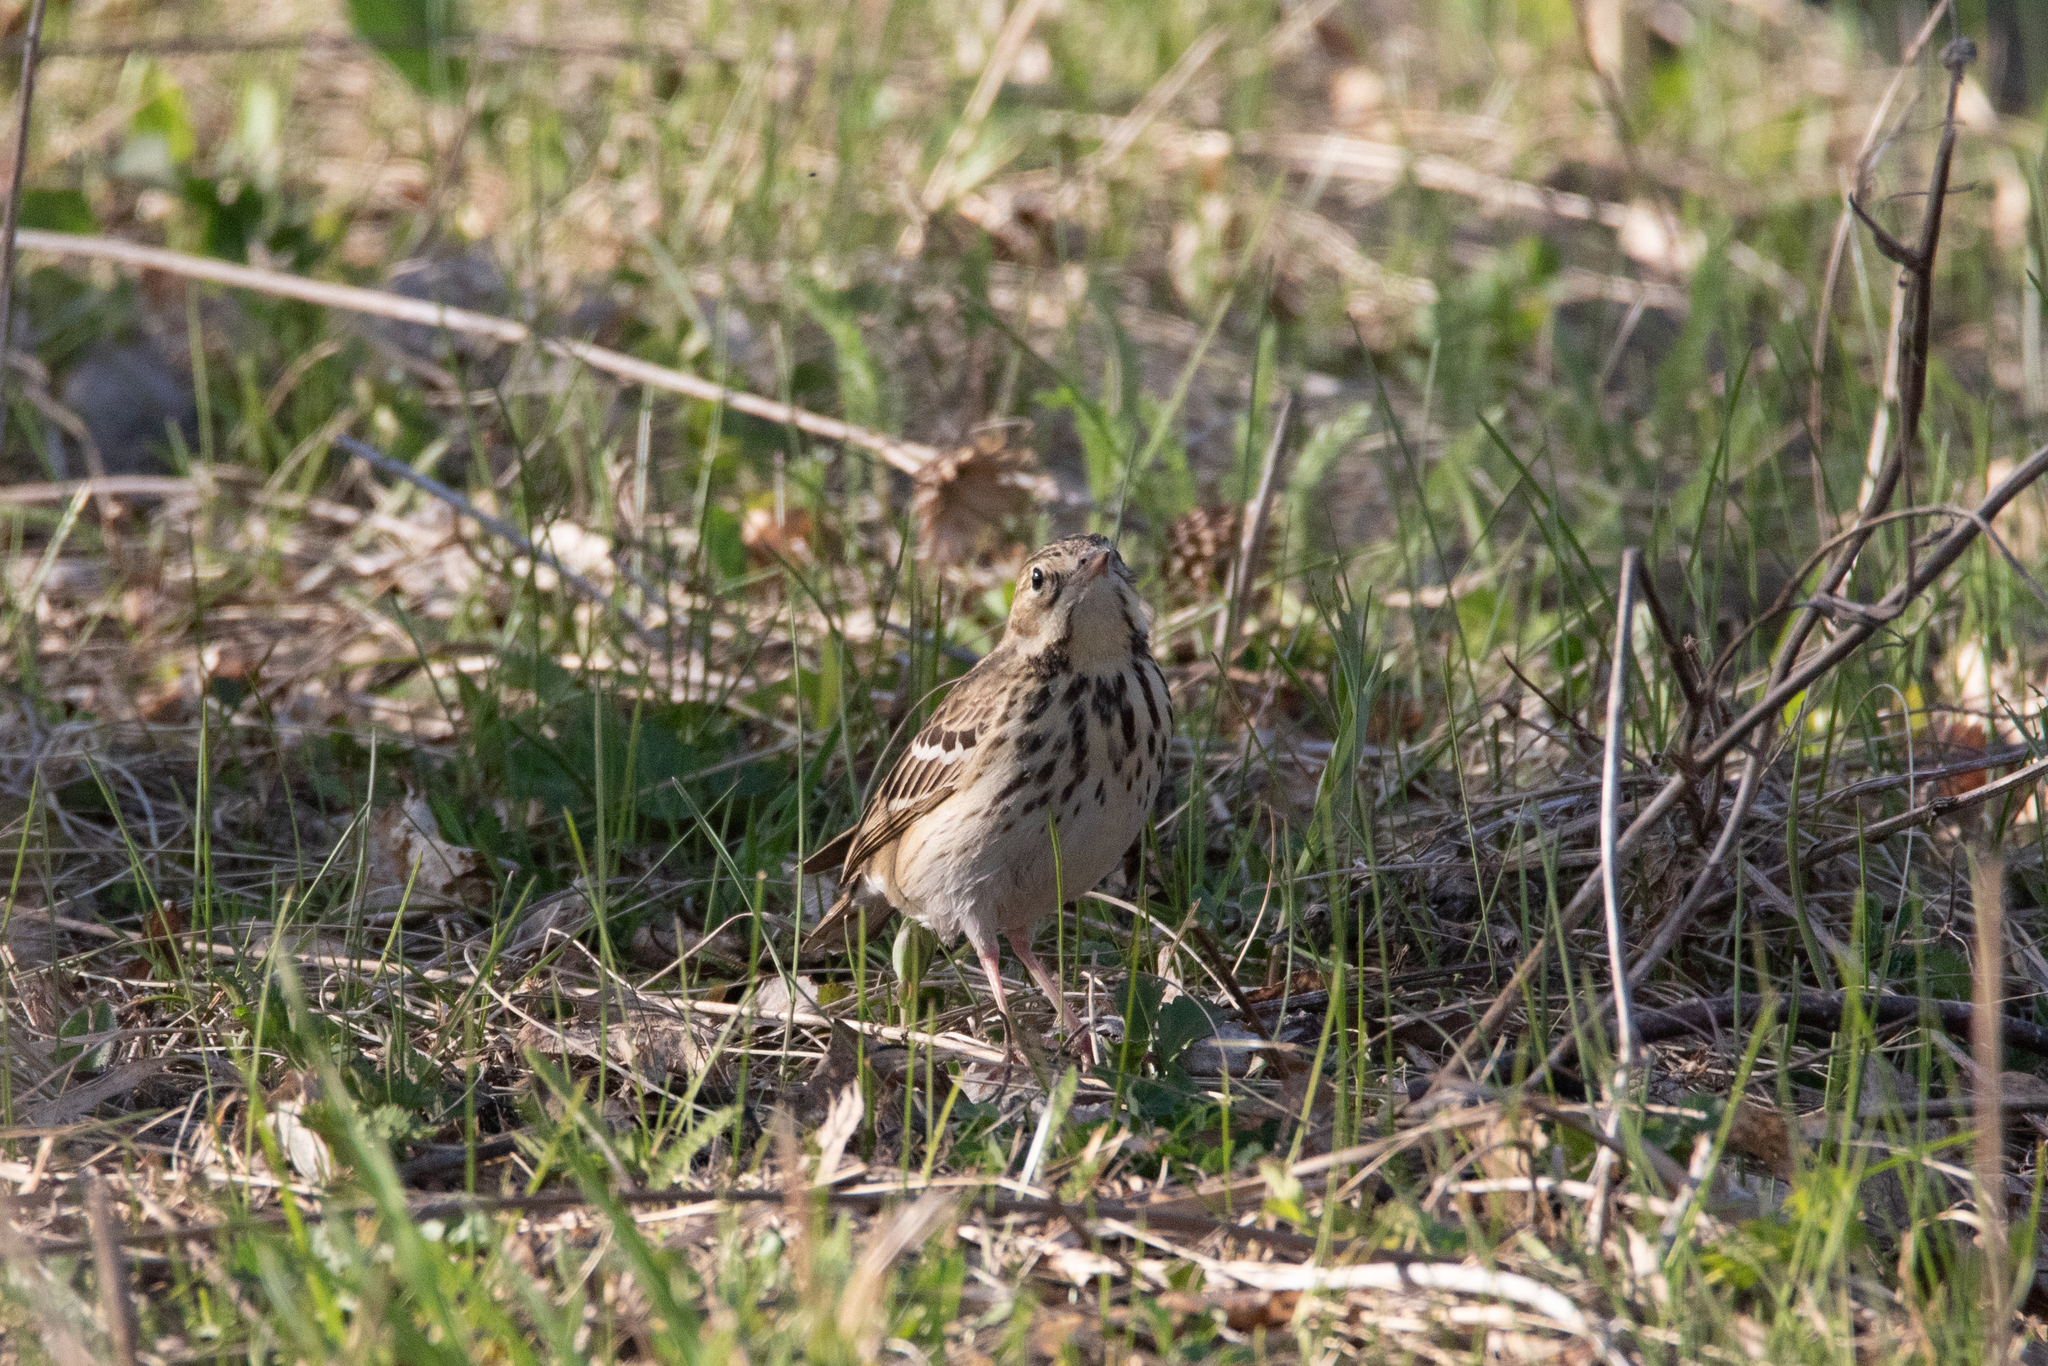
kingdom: Animalia
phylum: Chordata
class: Aves
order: Passeriformes
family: Motacillidae
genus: Anthus
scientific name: Anthus trivialis
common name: Tree pipit
